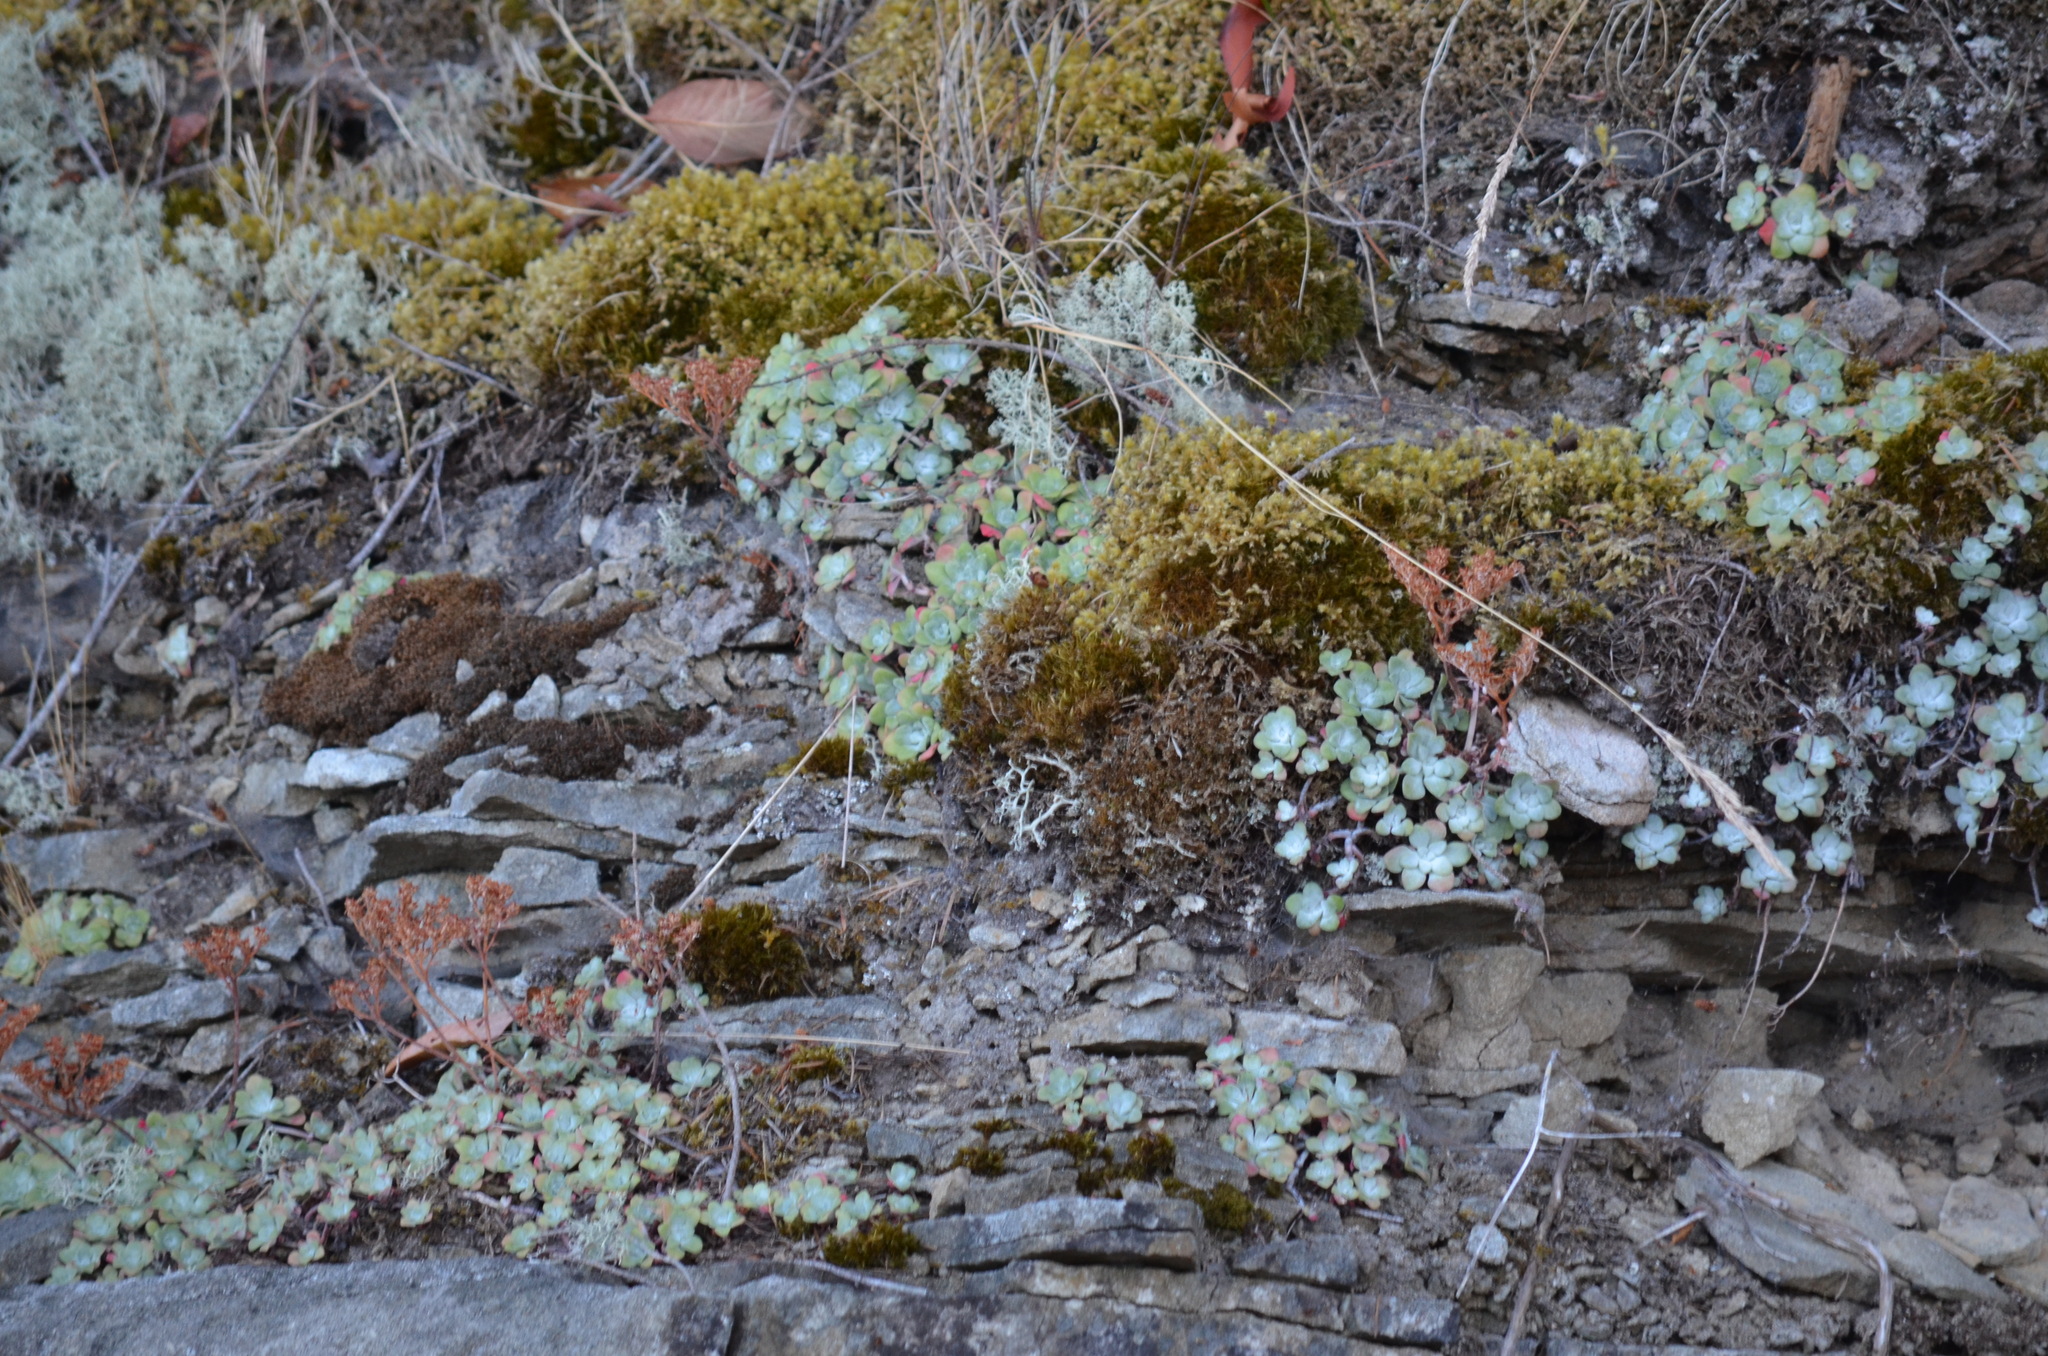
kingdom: Plantae
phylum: Tracheophyta
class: Magnoliopsida
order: Saxifragales
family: Crassulaceae
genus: Sedum
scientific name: Sedum spathulifolium
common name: Colorado stonecrop
